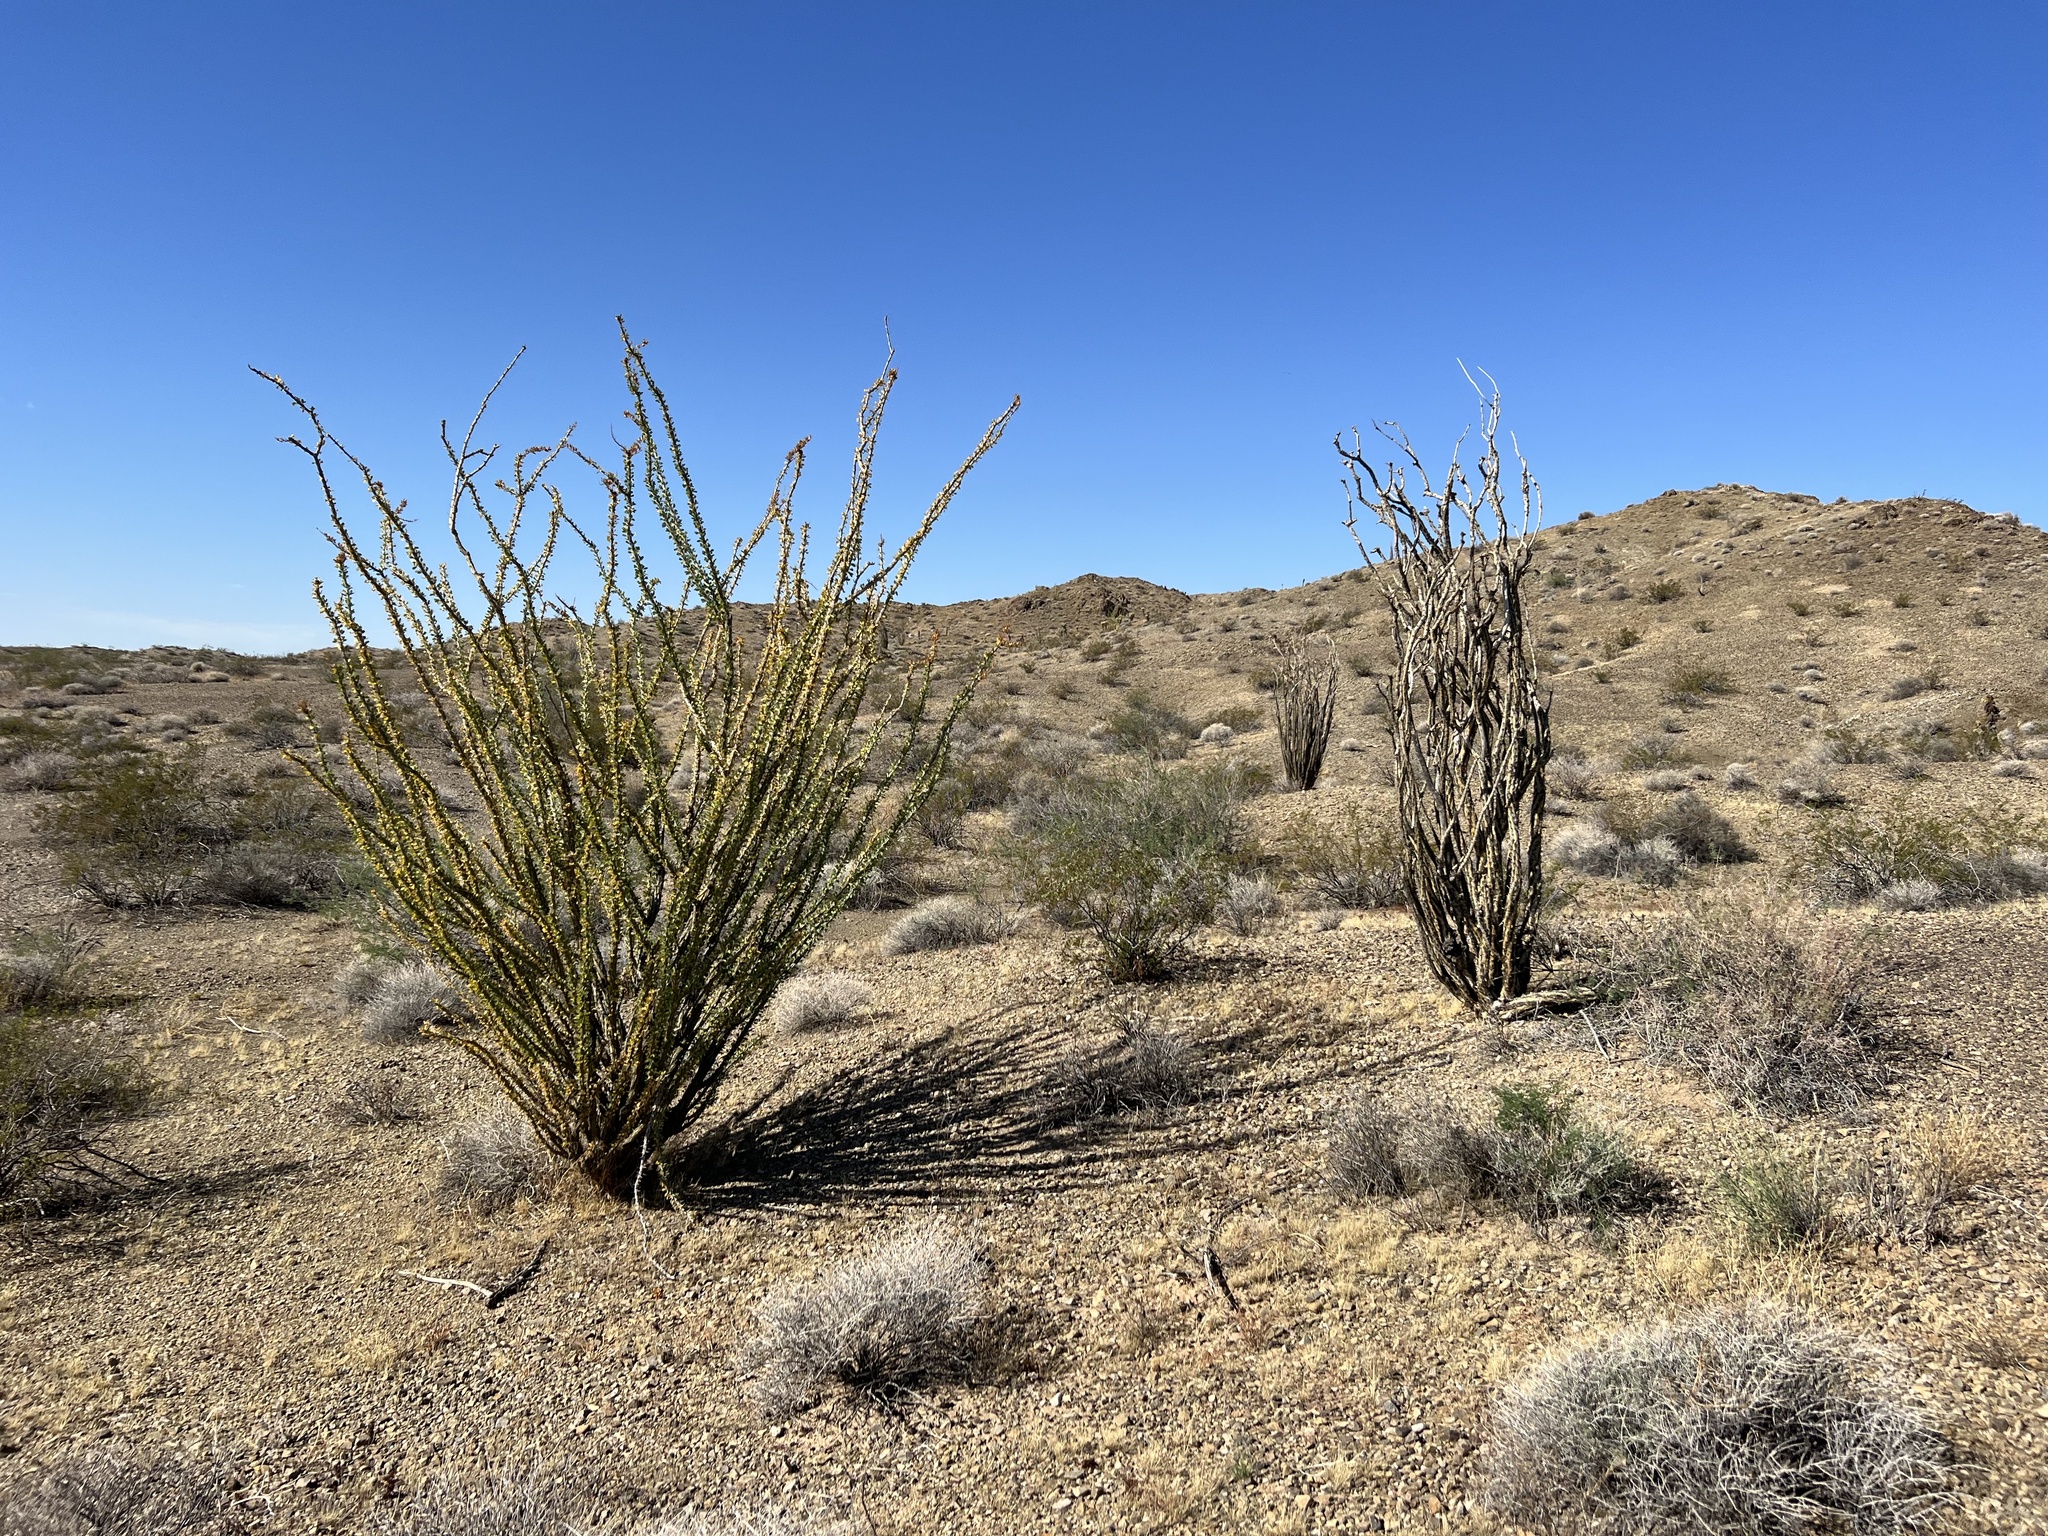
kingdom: Plantae
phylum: Tracheophyta
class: Magnoliopsida
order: Ericales
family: Fouquieriaceae
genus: Fouquieria
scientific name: Fouquieria splendens
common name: Vine-cactus
